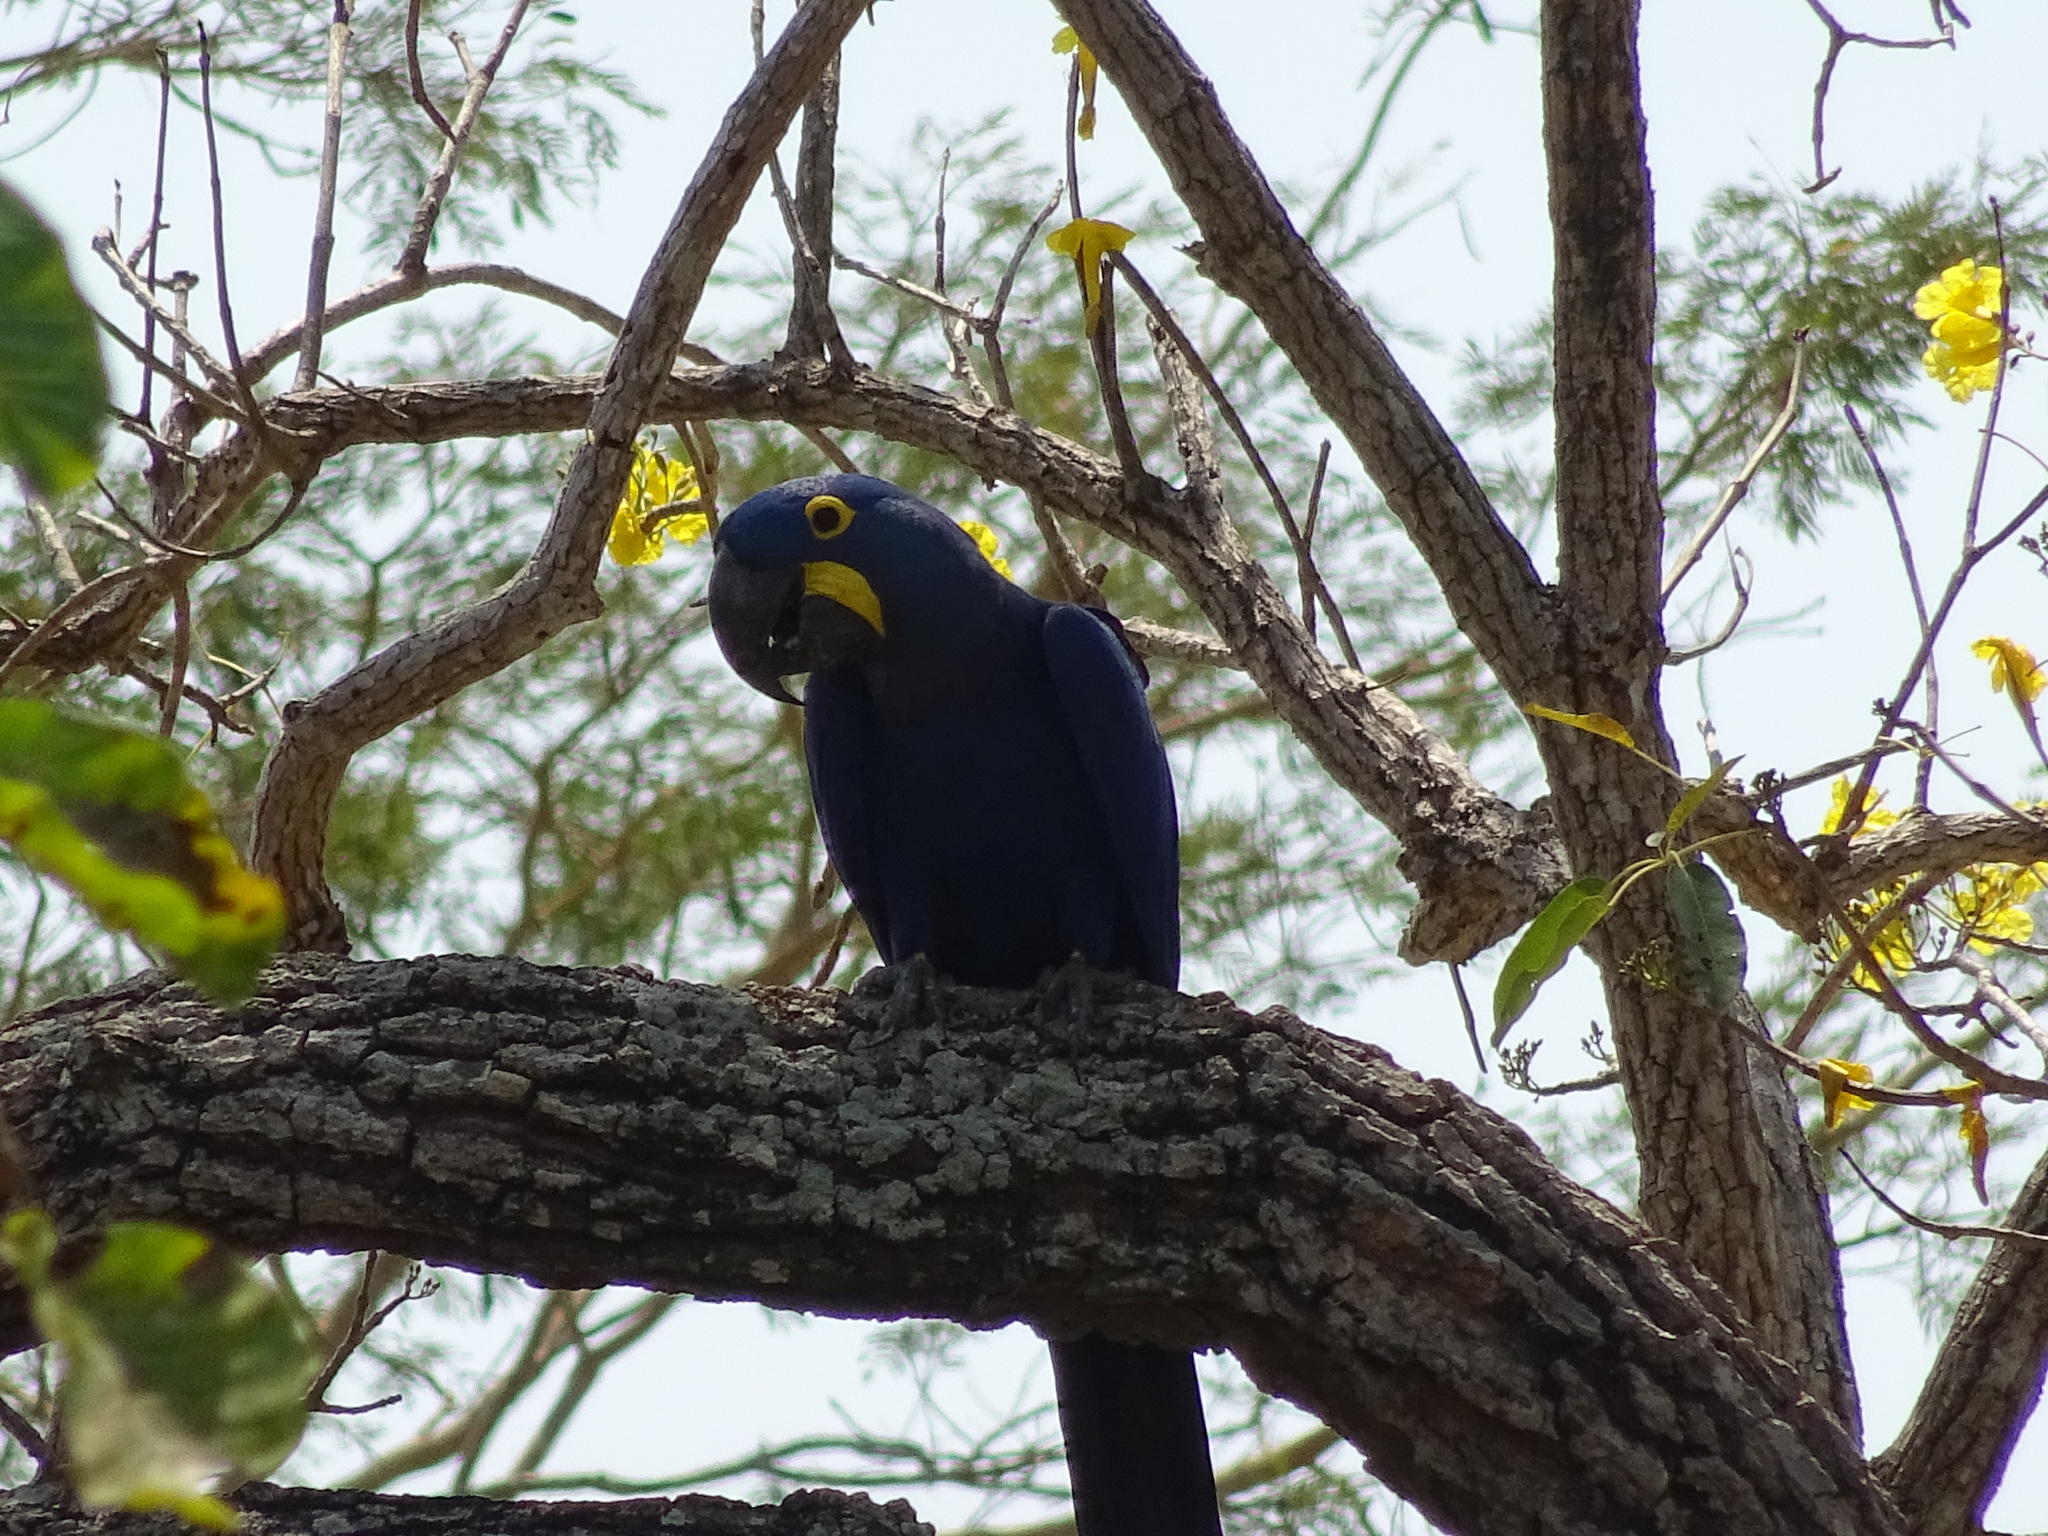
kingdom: Animalia
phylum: Chordata
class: Aves
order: Psittaciformes
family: Psittacidae
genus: Anodorhynchus
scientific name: Anodorhynchus hyacinthinus
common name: Hyacinth macaw
